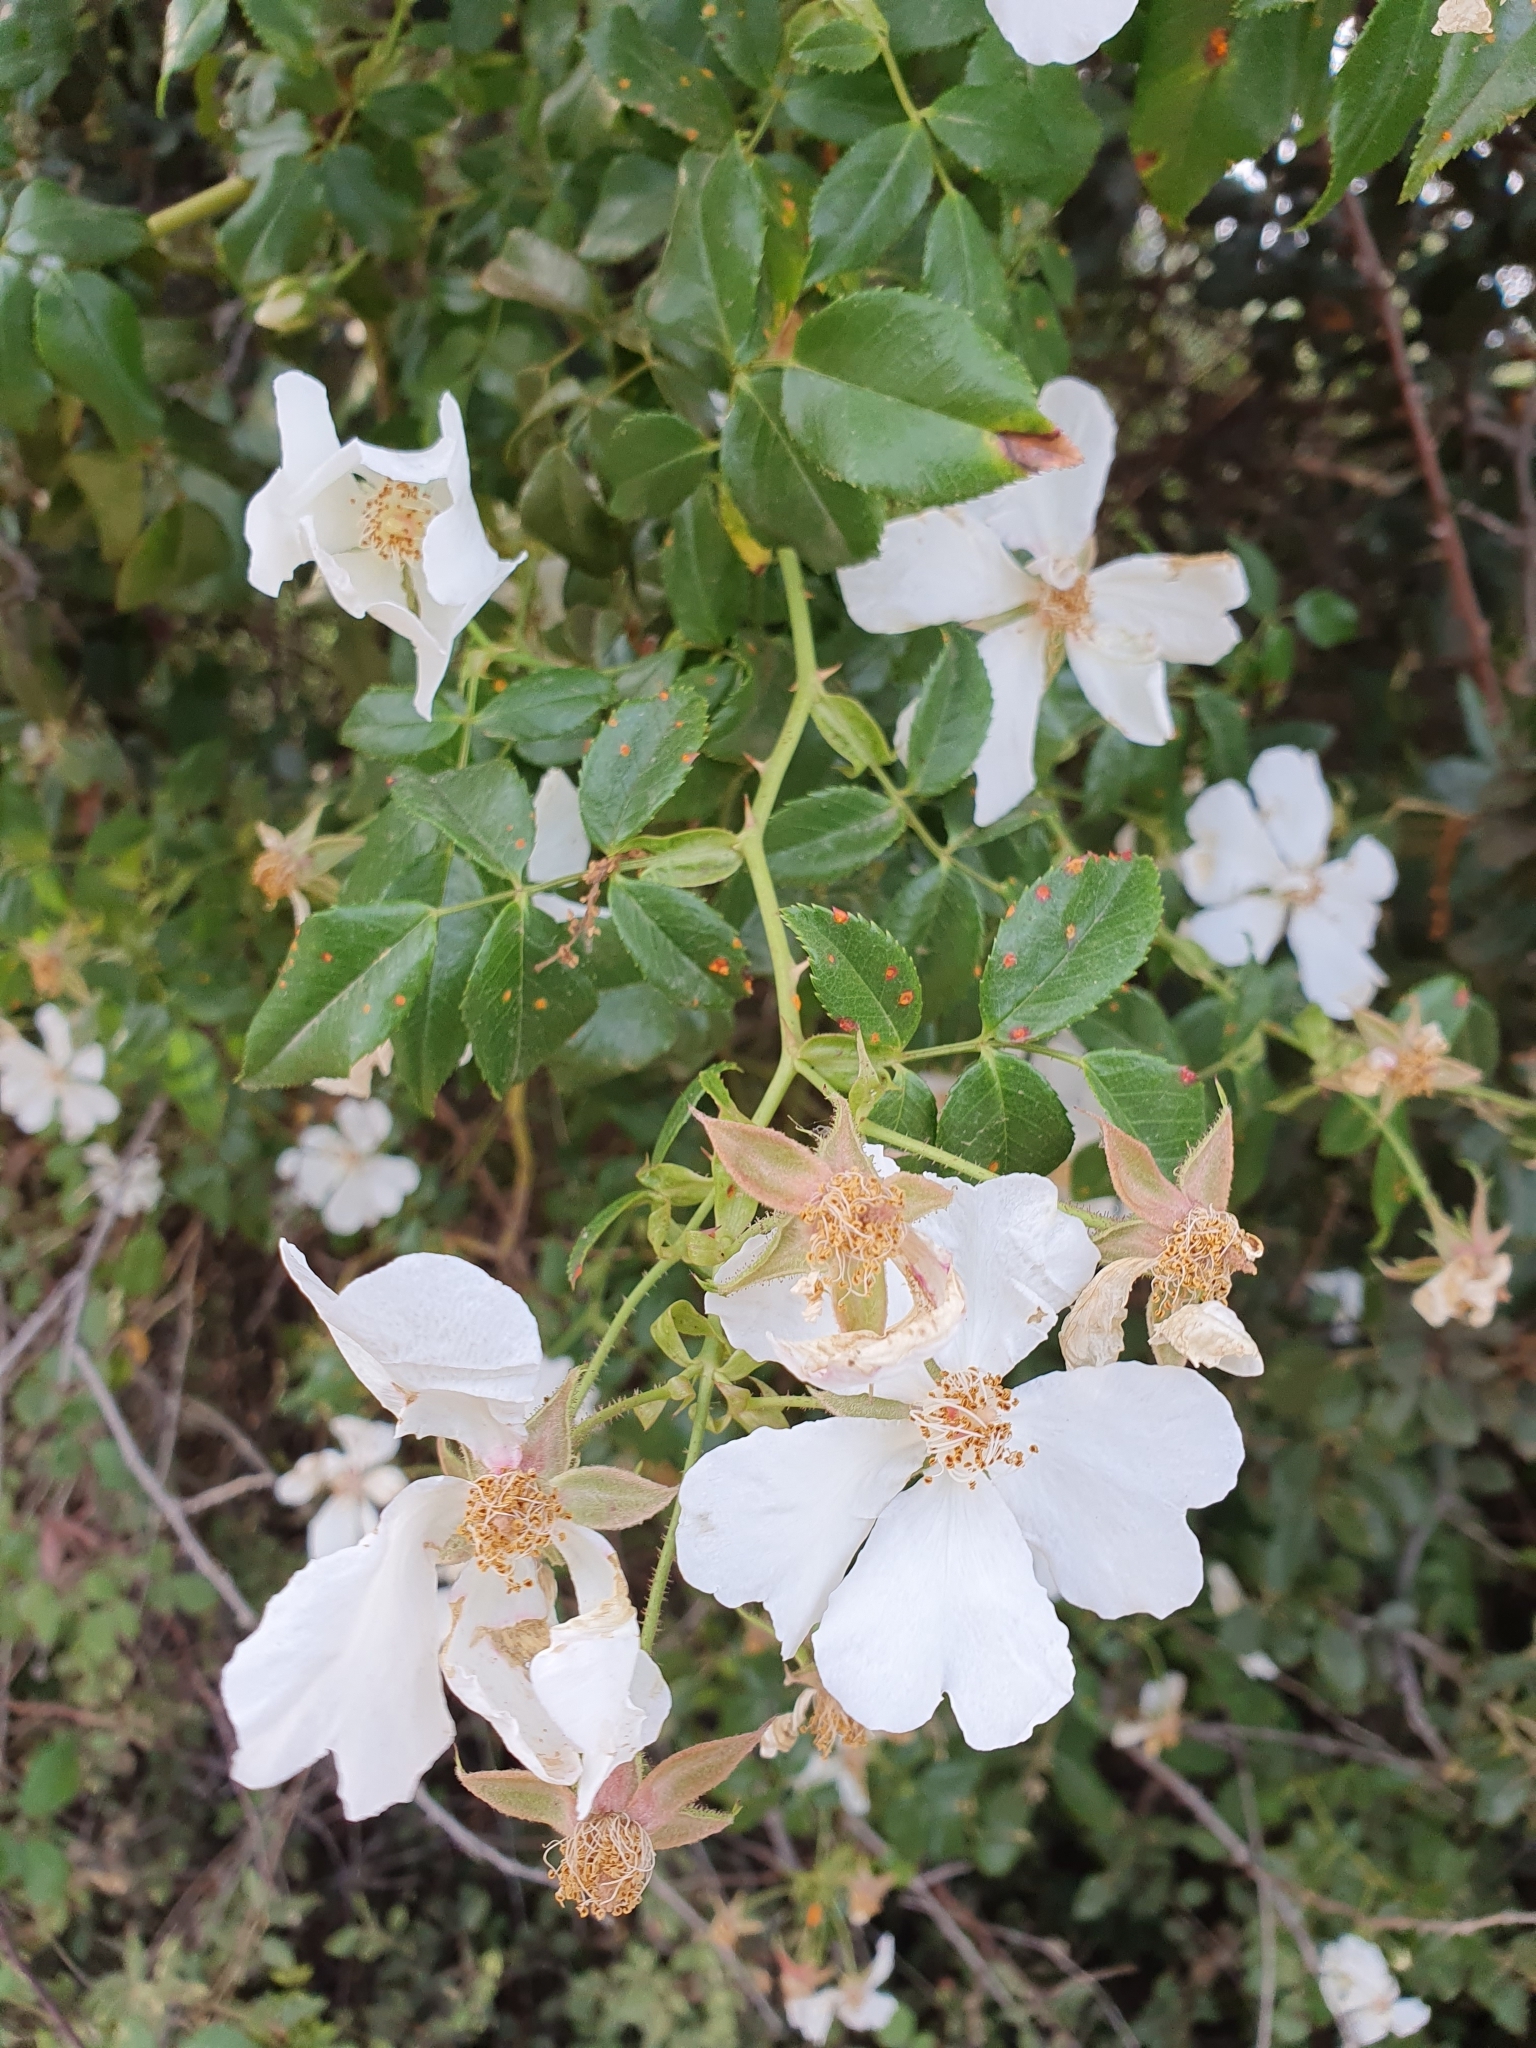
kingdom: Plantae
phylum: Tracheophyta
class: Magnoliopsida
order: Rosales
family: Rosaceae
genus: Rosa
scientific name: Rosa sempervirens
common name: Evergreen rose
